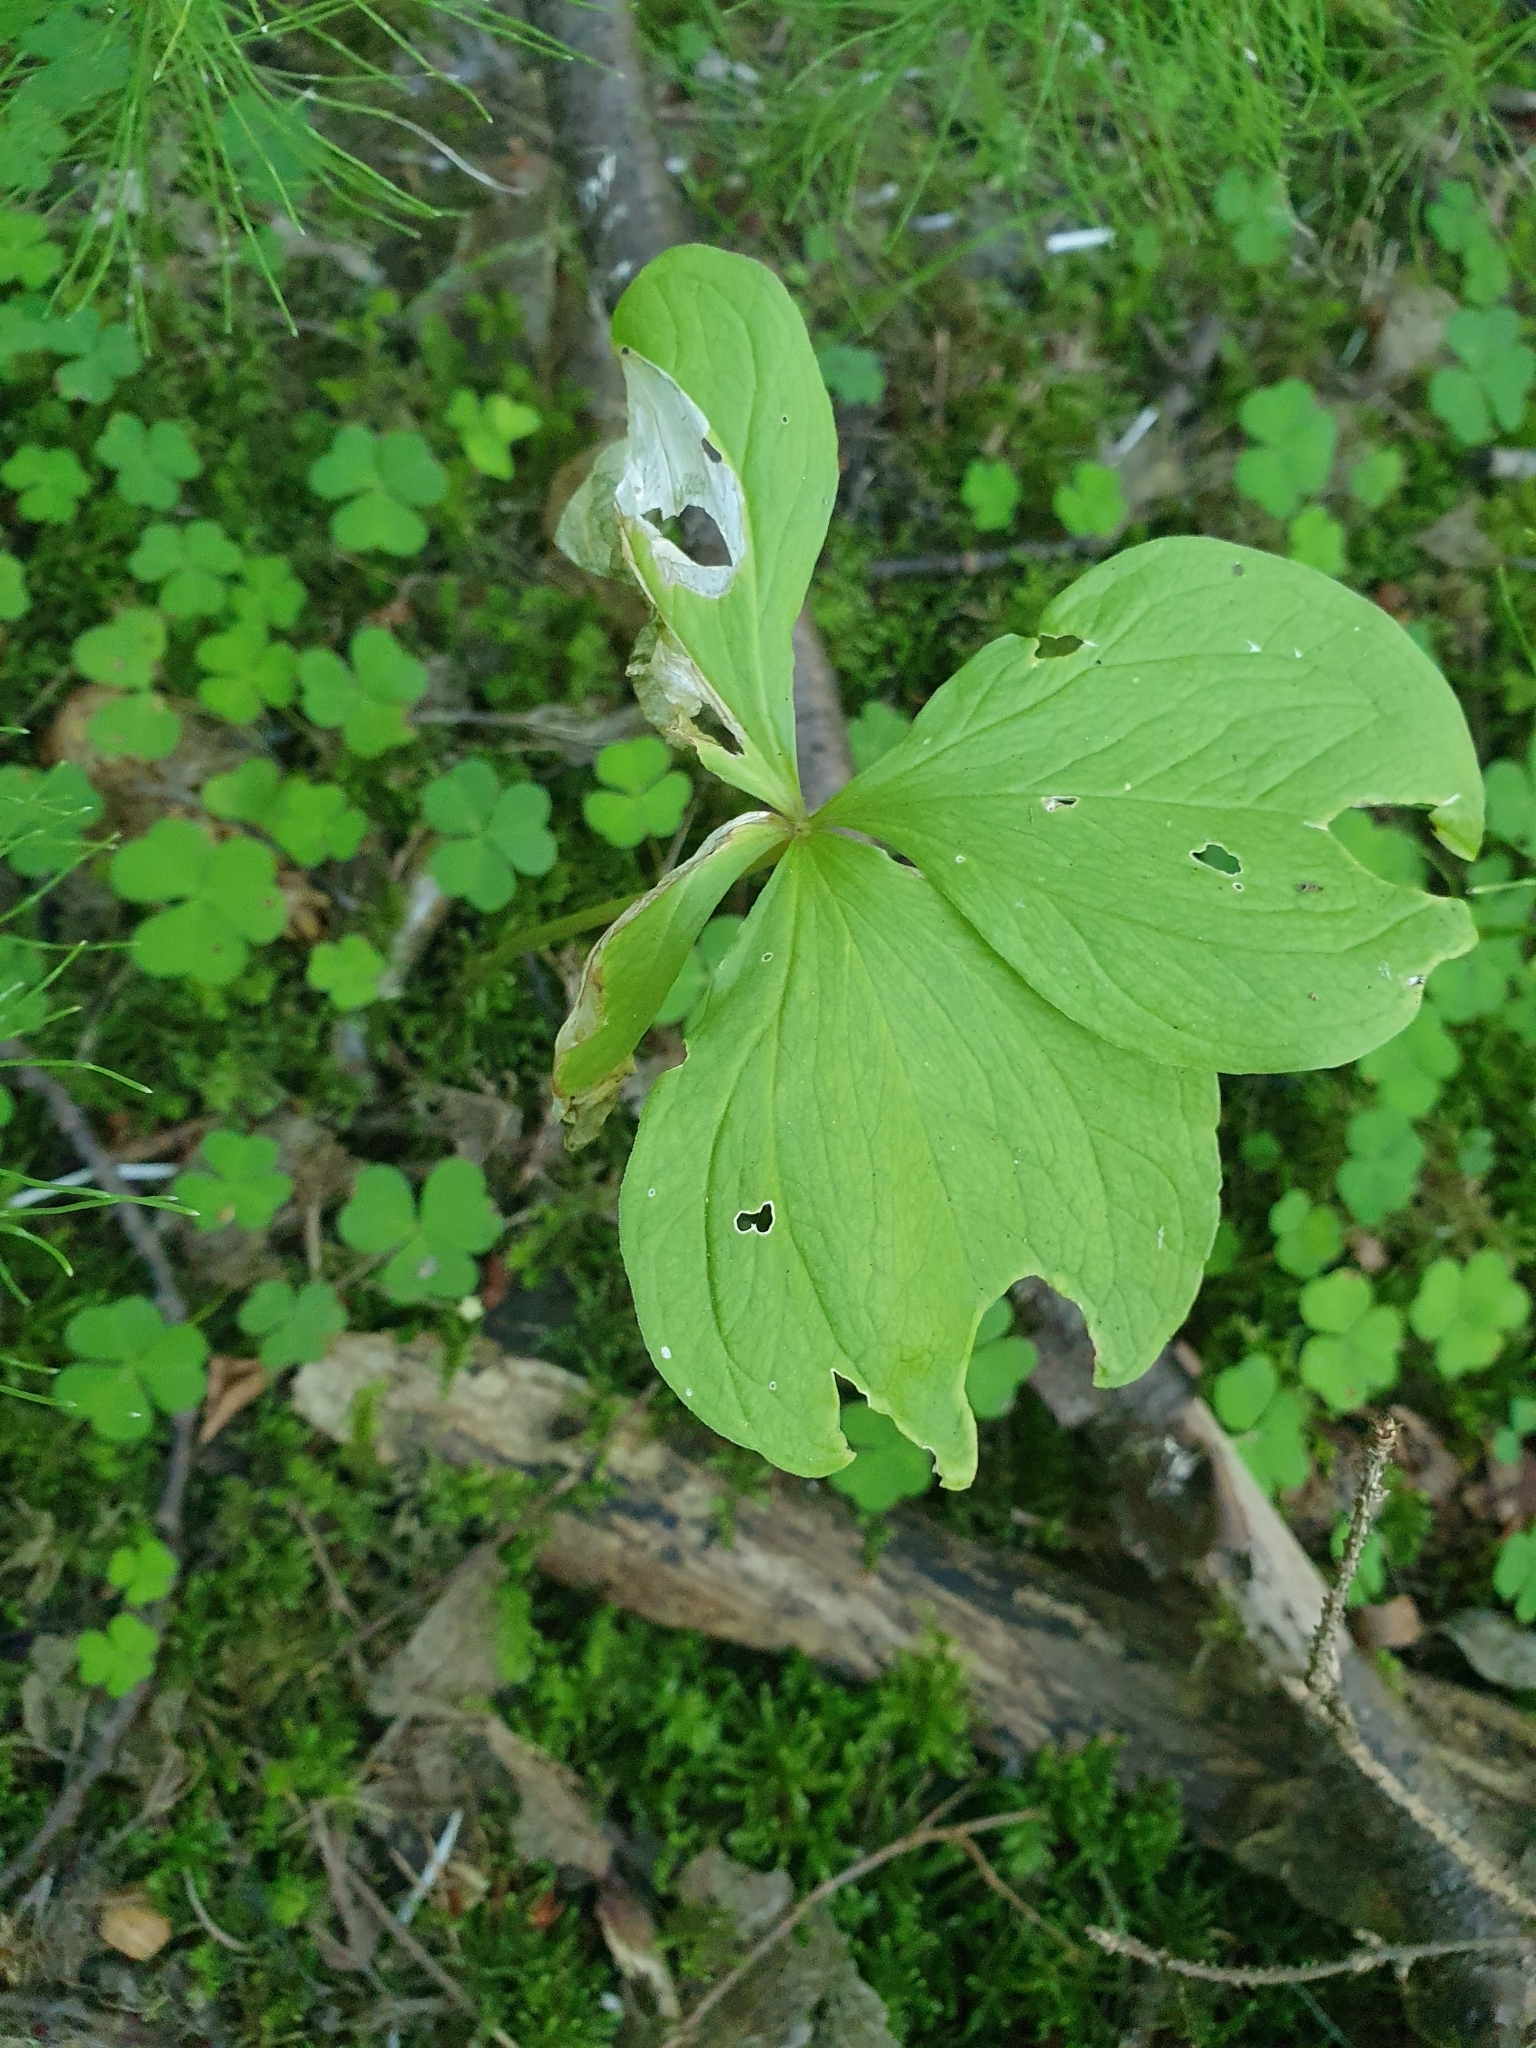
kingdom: Plantae
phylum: Tracheophyta
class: Liliopsida
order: Liliales
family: Melanthiaceae
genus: Paris
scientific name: Paris quadrifolia
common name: Herb-paris
